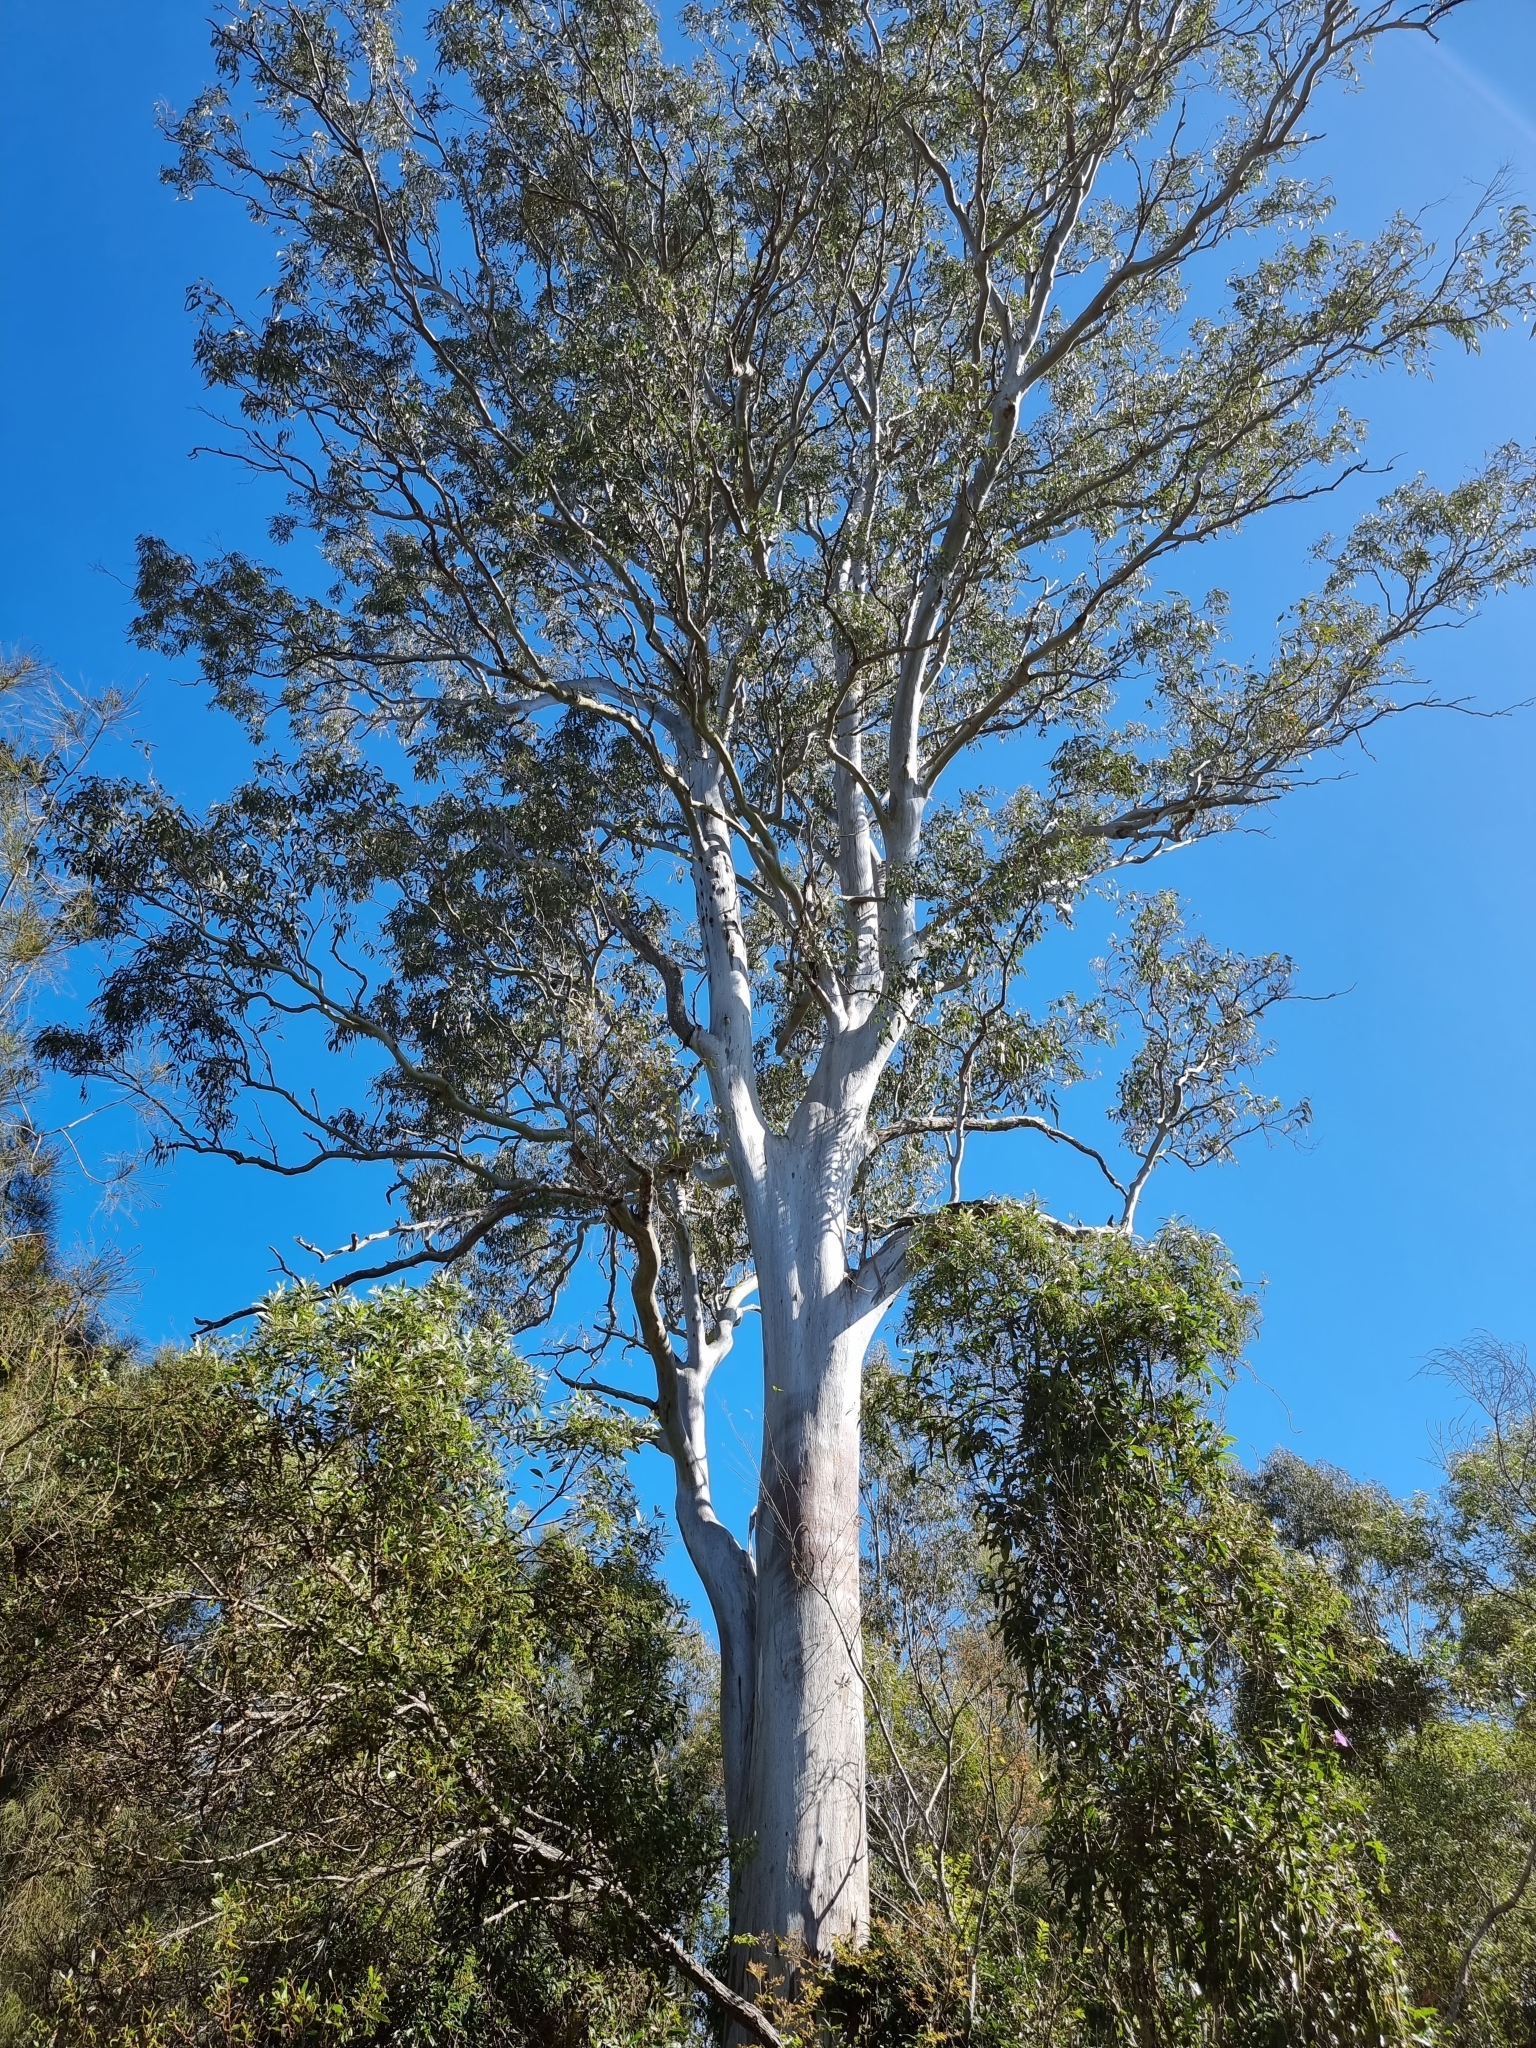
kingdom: Plantae
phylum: Tracheophyta
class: Magnoliopsida
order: Myrtales
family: Myrtaceae
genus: Eucalyptus
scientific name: Eucalyptus tereticornis
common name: Forest redgum
